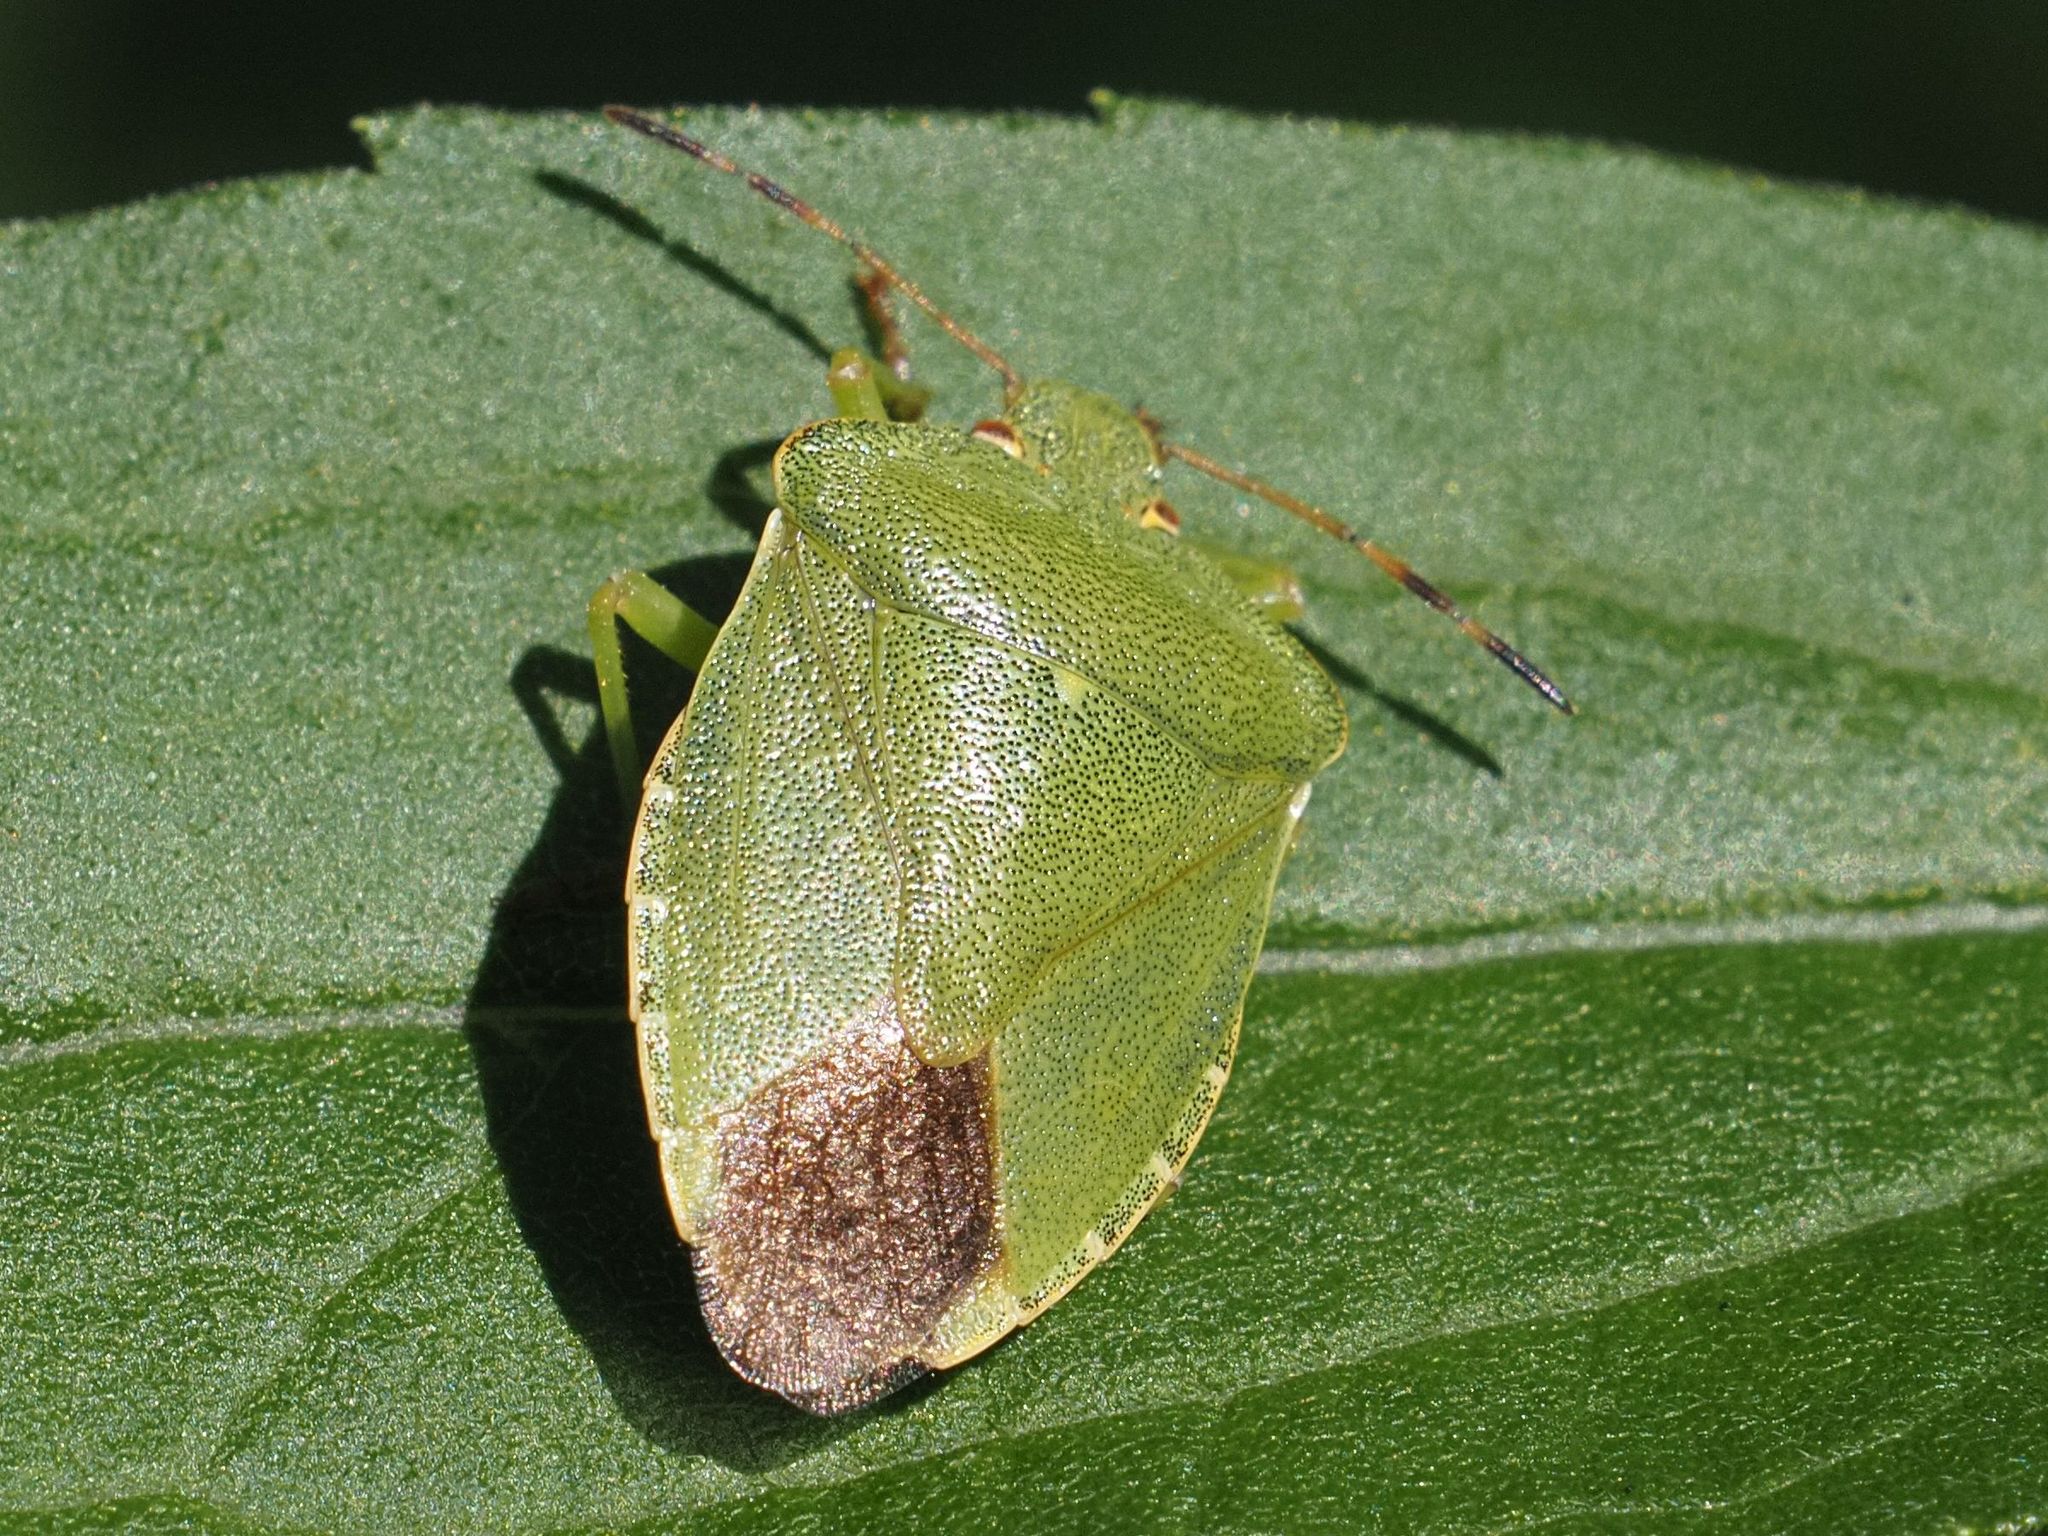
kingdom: Animalia
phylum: Arthropoda
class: Insecta
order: Hemiptera
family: Pentatomidae
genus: Palomena
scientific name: Palomena prasina
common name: Green shieldbug
